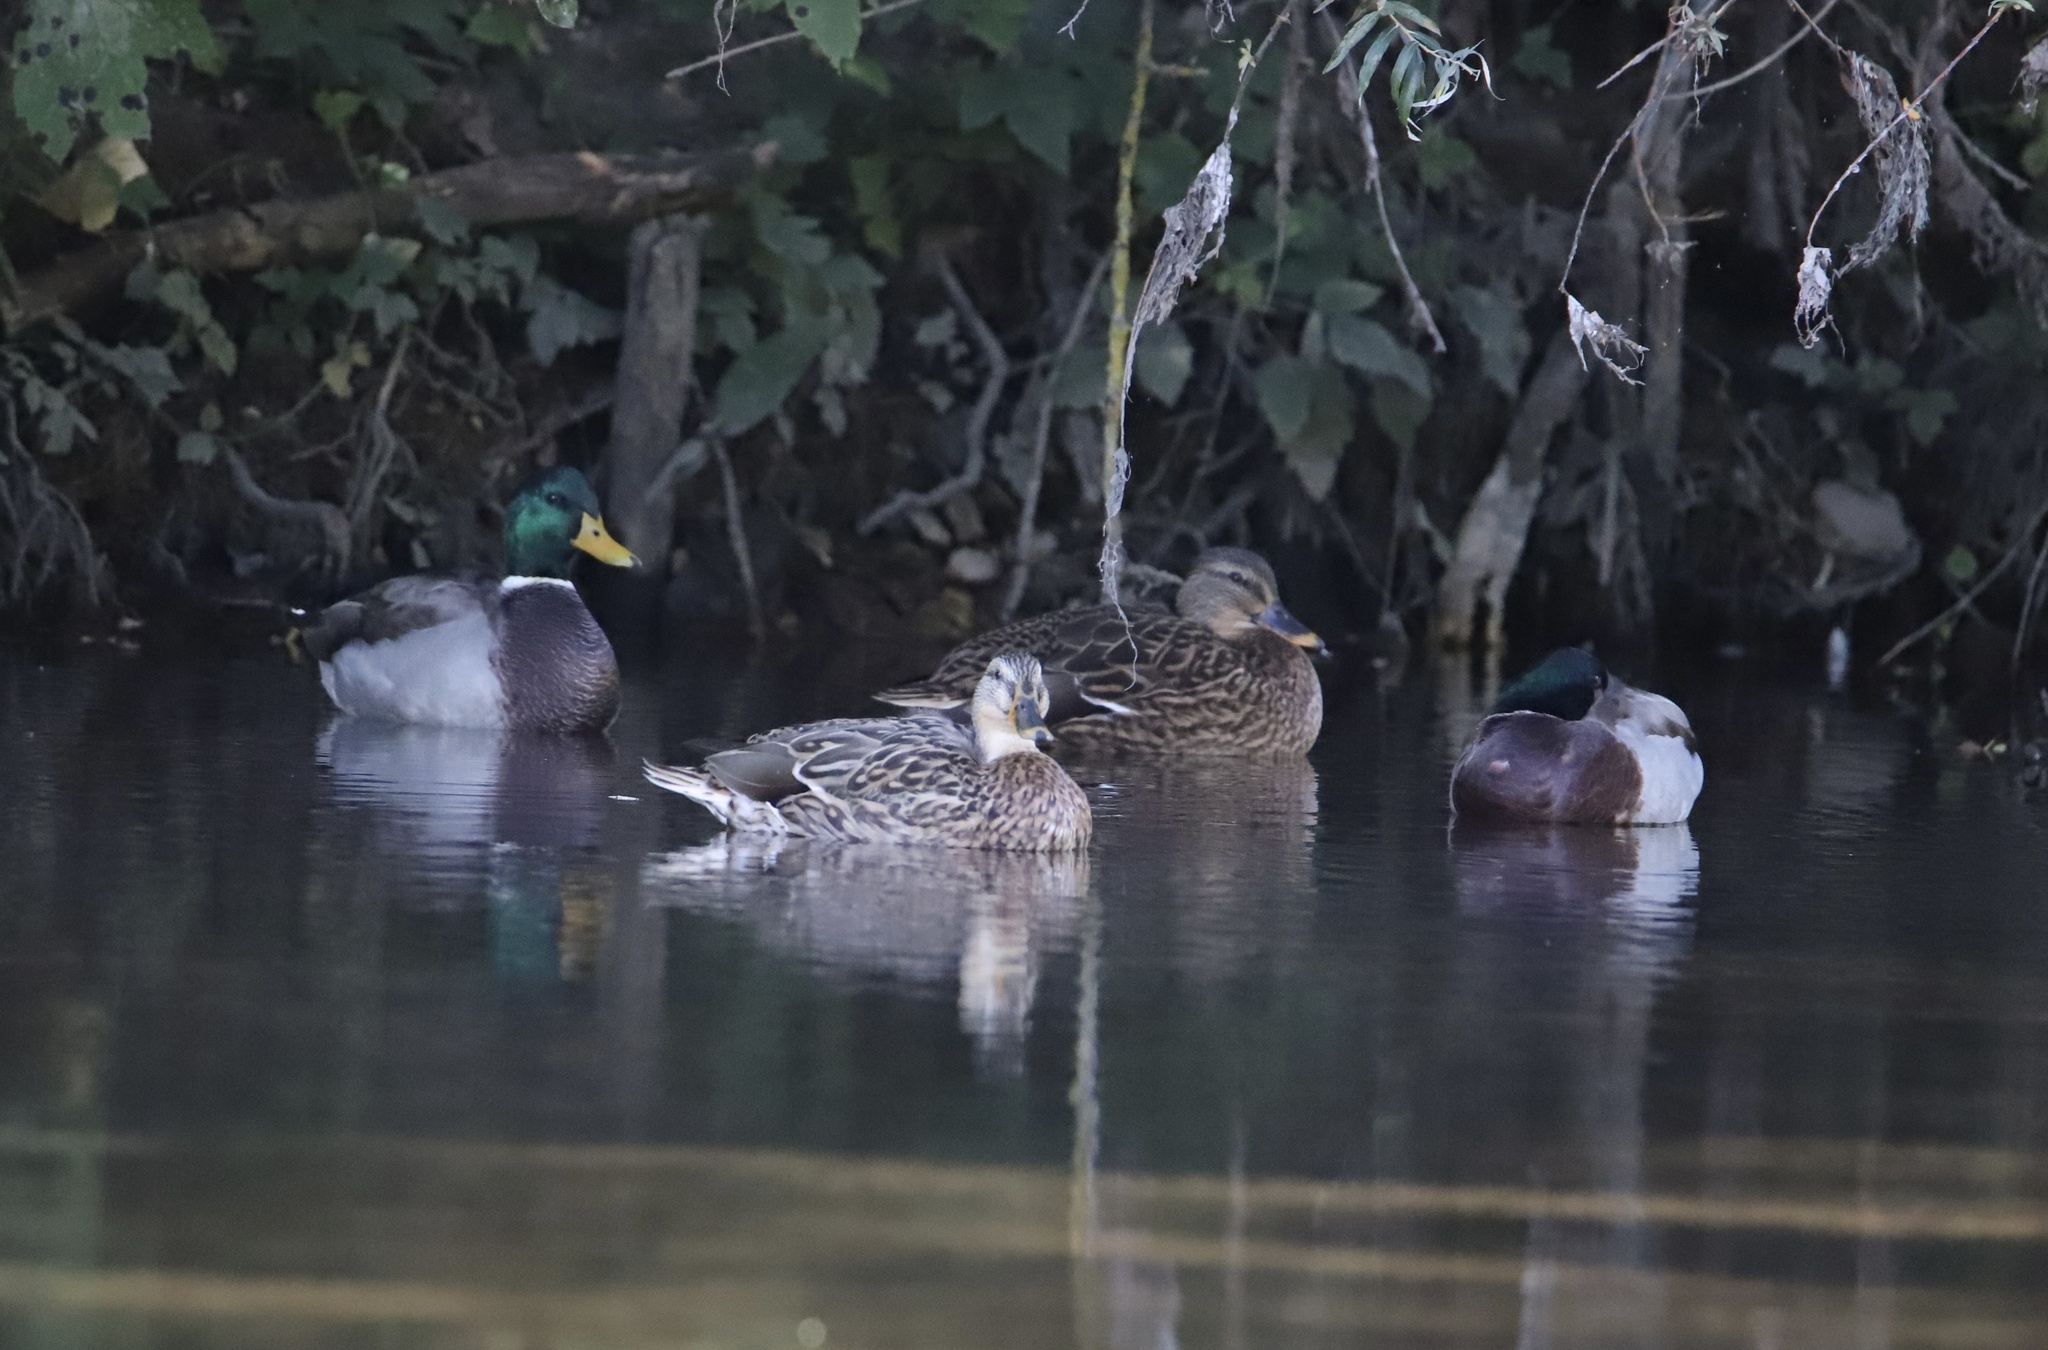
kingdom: Animalia
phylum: Chordata
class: Aves
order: Anseriformes
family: Anatidae
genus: Anas
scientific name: Anas platyrhynchos
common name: Mallard
